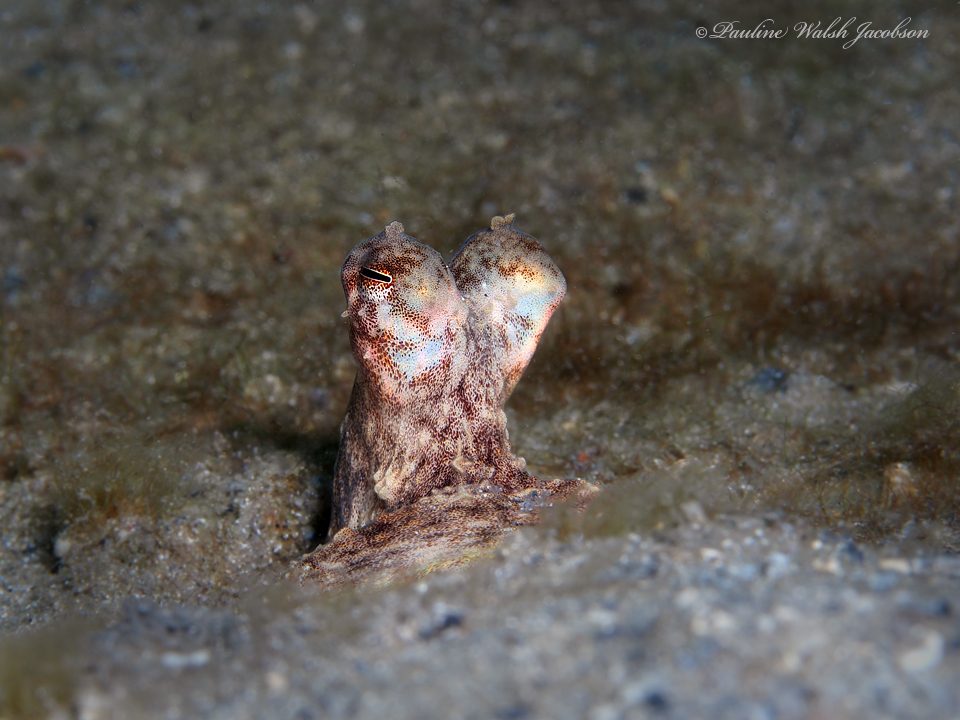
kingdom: Animalia
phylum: Mollusca
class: Cephalopoda
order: Octopoda
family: Octopodidae
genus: Macrotritopus
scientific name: Macrotritopus defilippi
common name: Lilliput longarm octopus
